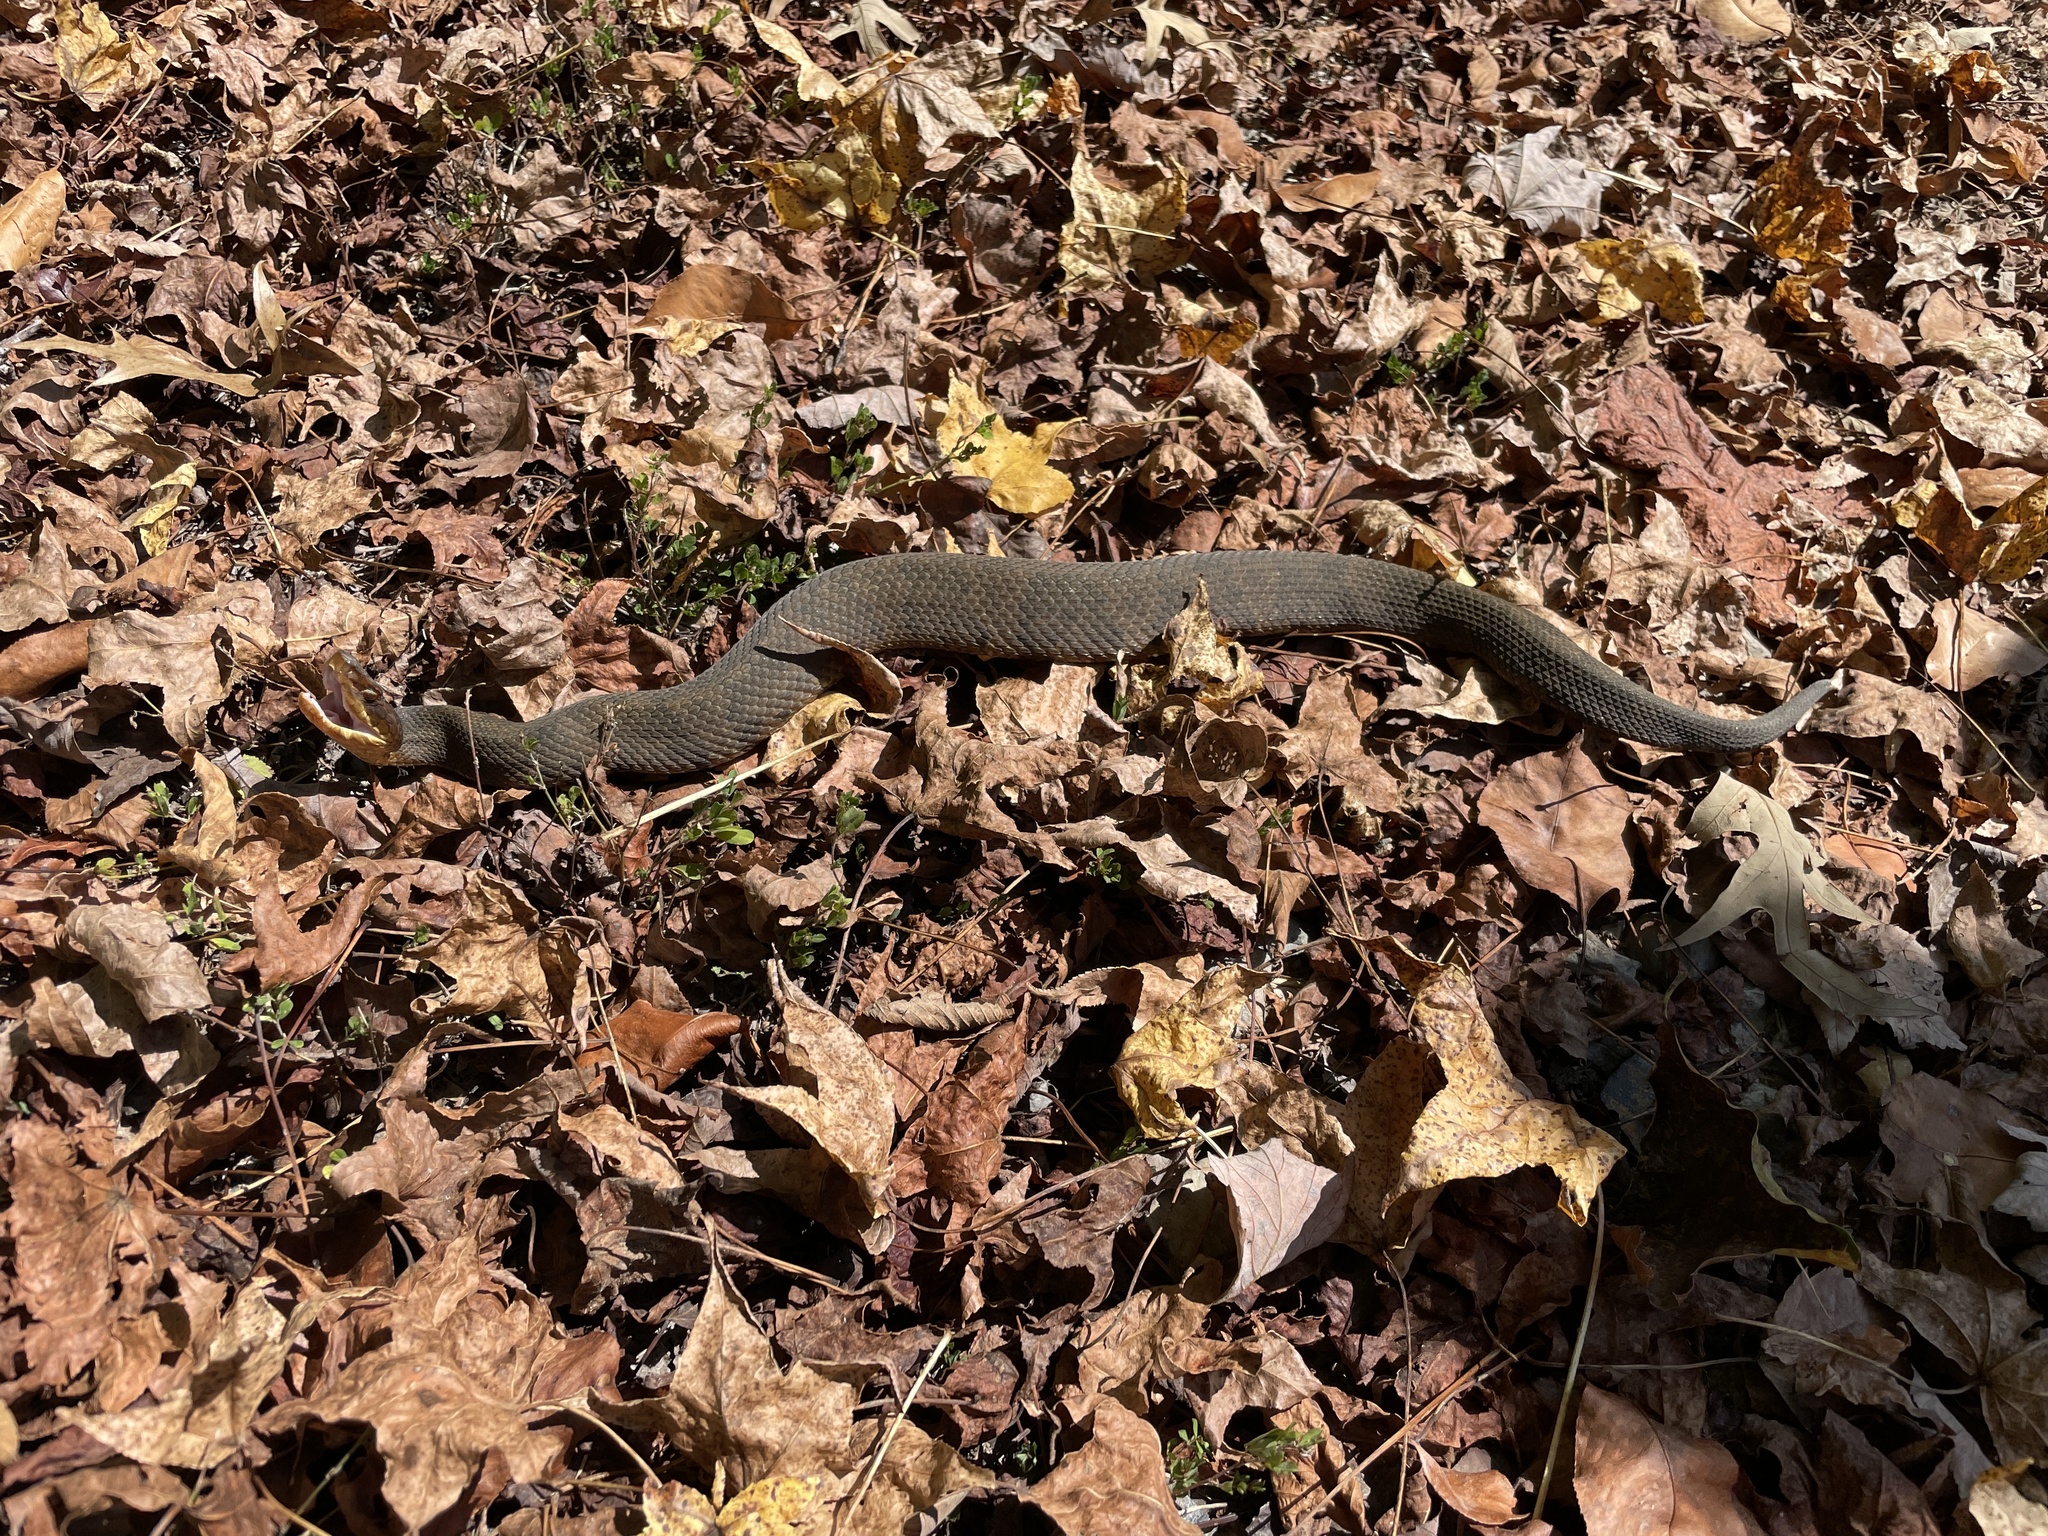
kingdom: Animalia
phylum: Chordata
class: Squamata
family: Viperidae
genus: Agkistrodon
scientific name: Agkistrodon piscivorus
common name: Cottonmouth
